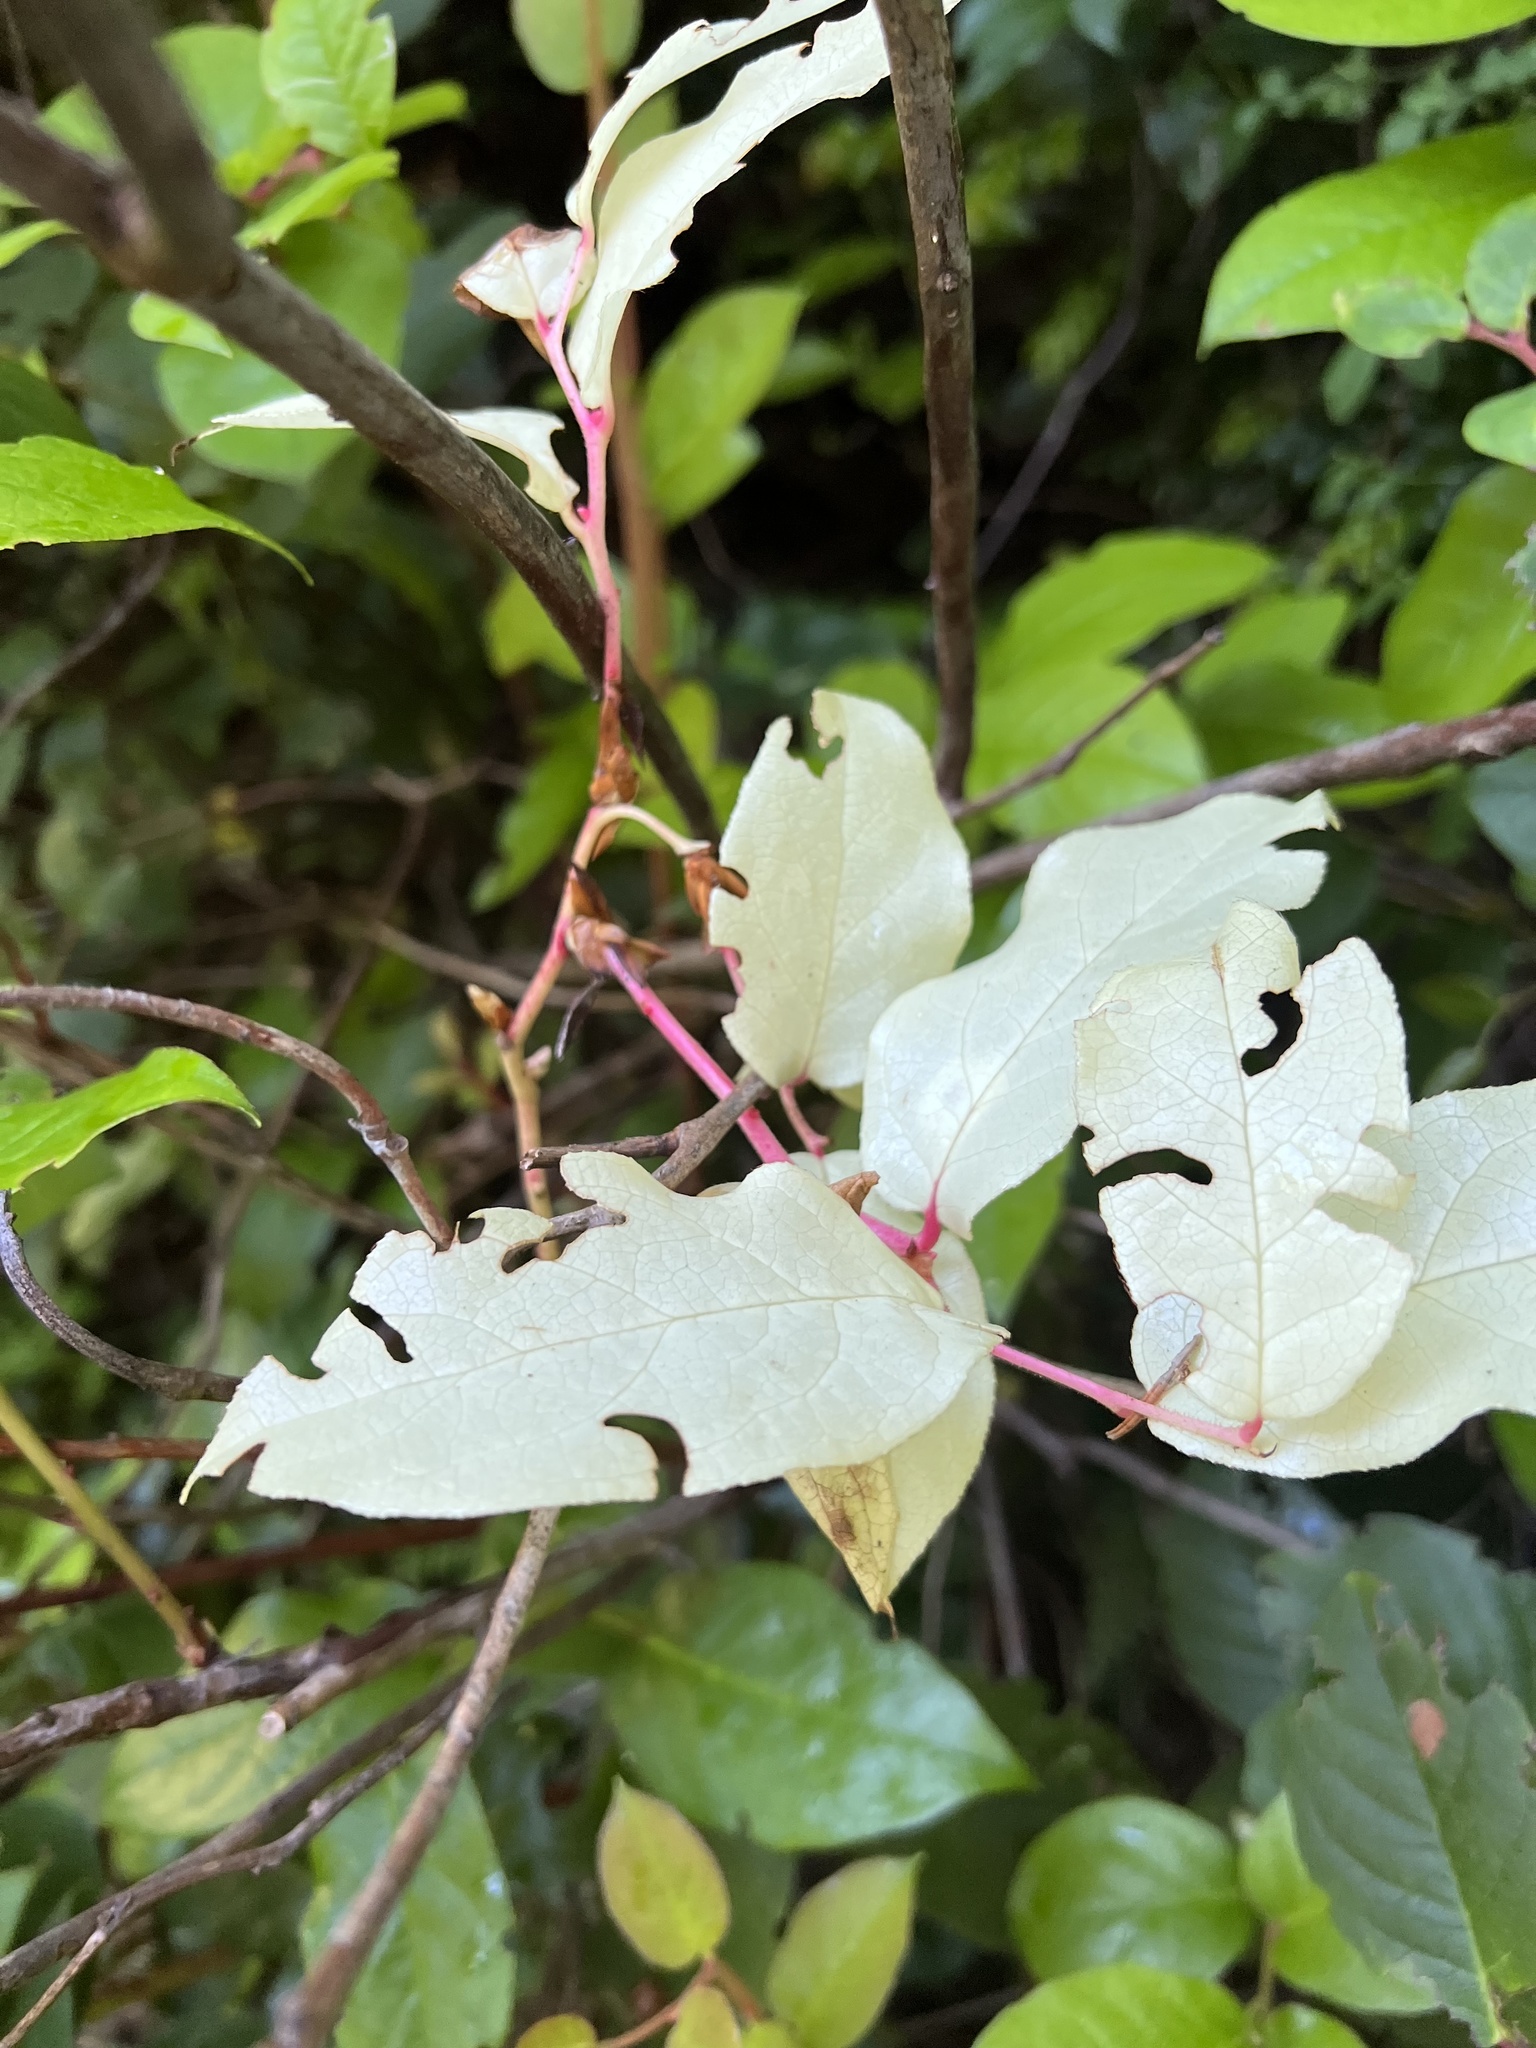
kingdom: Plantae
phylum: Tracheophyta
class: Magnoliopsida
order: Ericales
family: Ericaceae
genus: Gaultheria
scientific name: Gaultheria shallon
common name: Shallon
